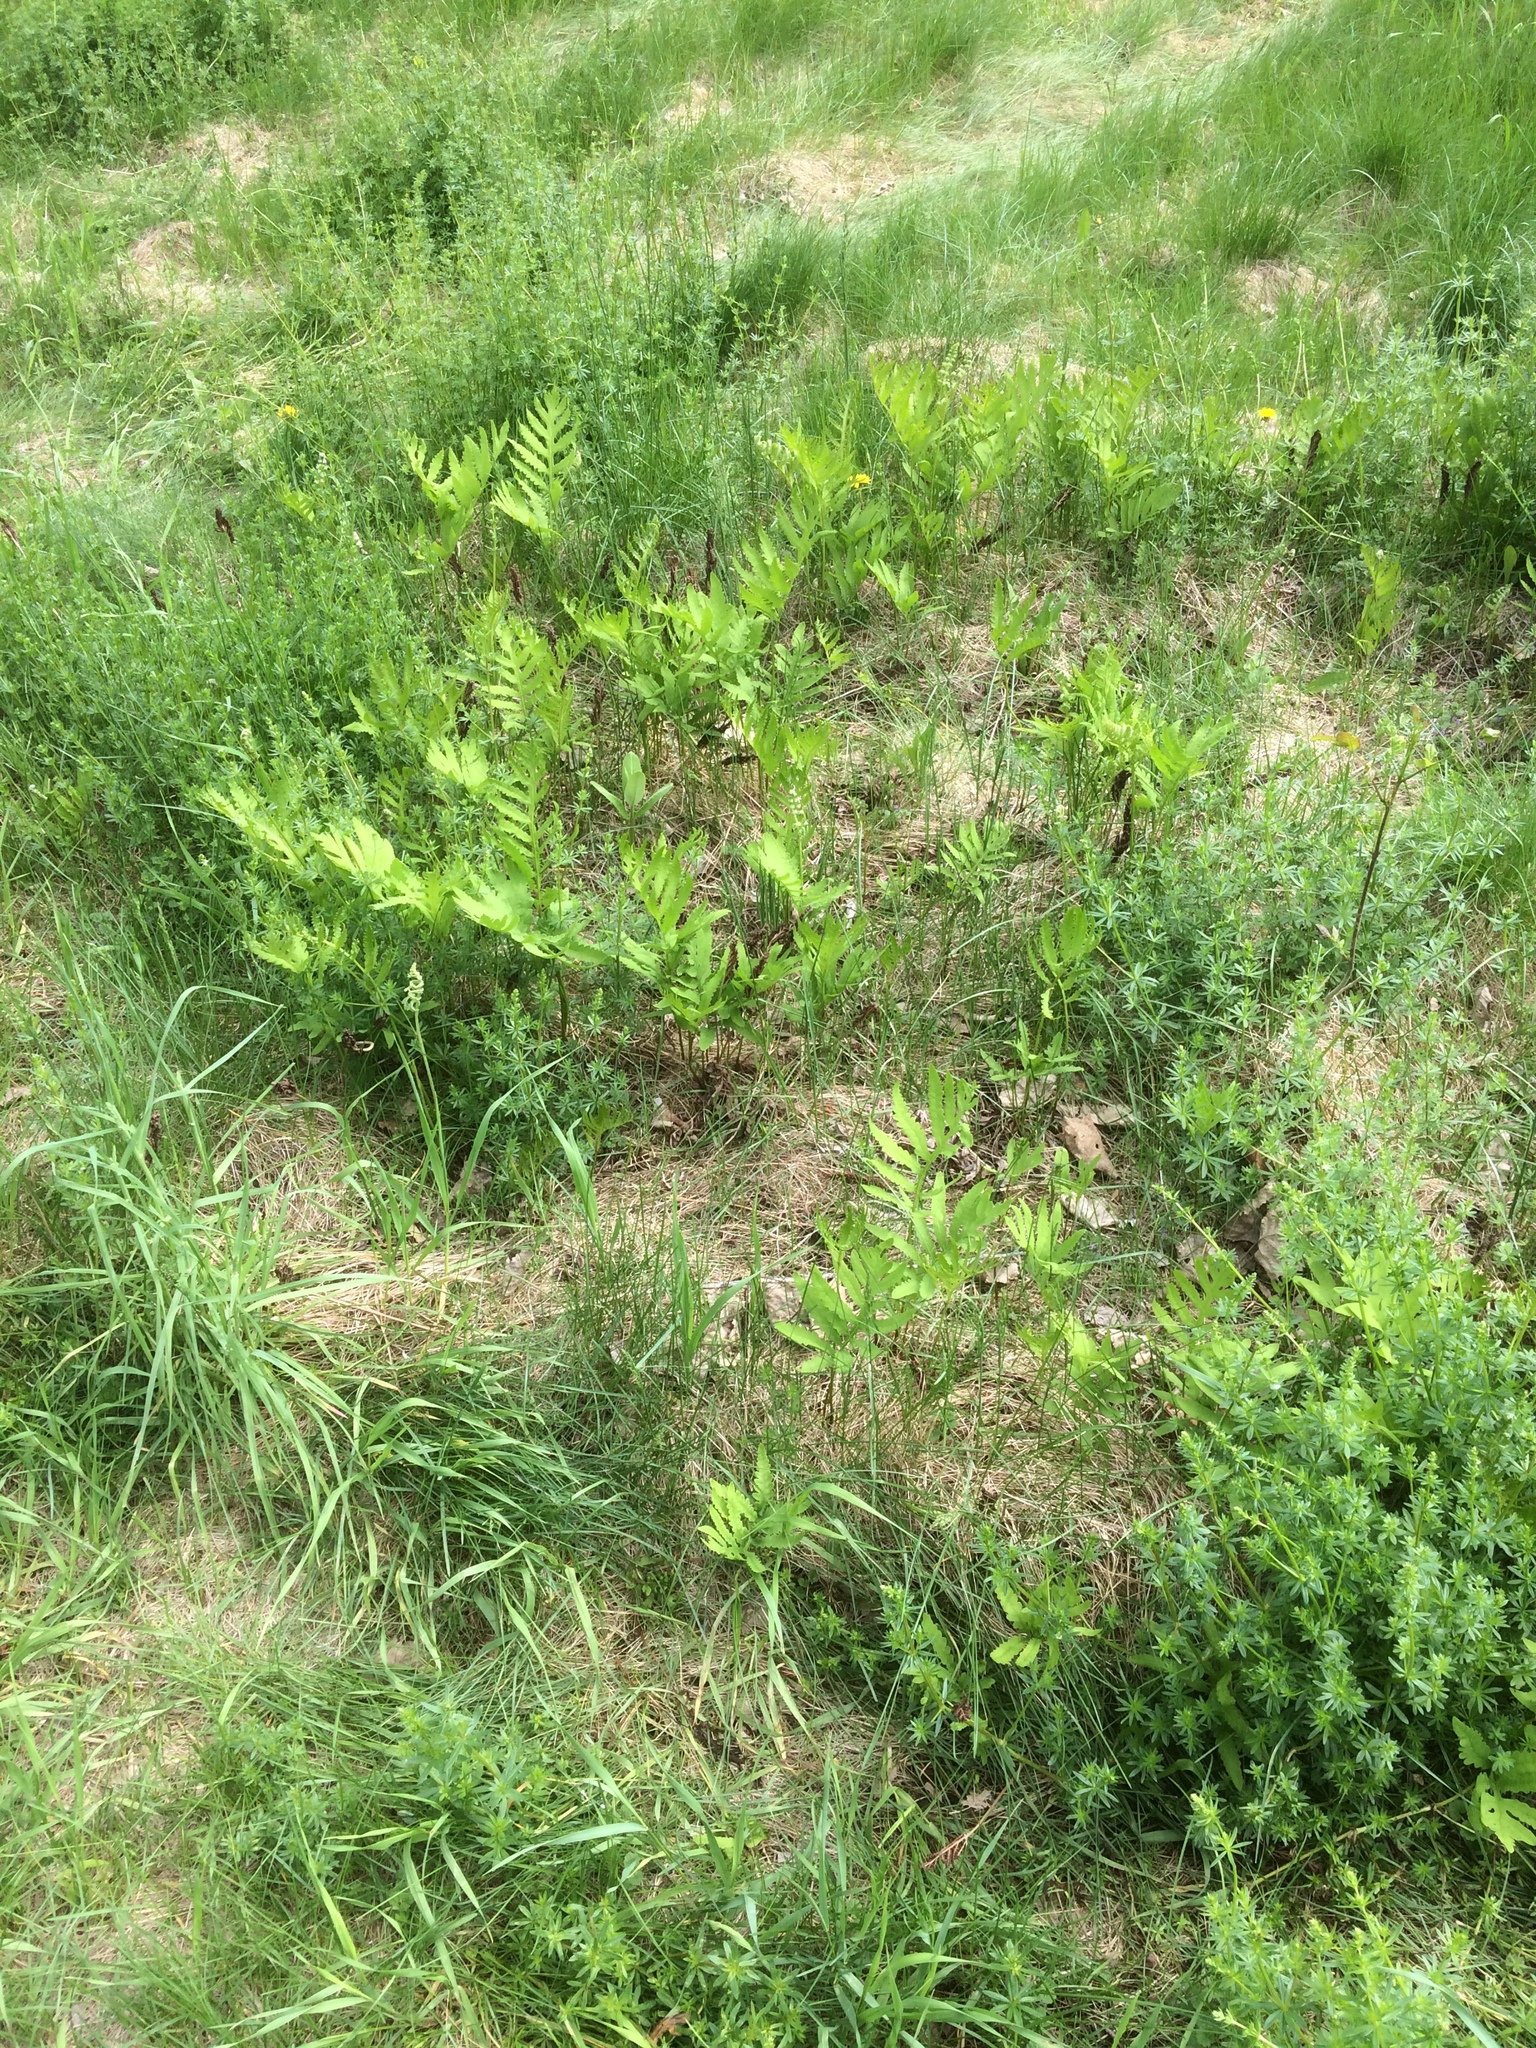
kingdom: Plantae
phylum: Tracheophyta
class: Polypodiopsida
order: Polypodiales
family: Onocleaceae
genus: Onoclea
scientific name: Onoclea sensibilis
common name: Sensitive fern
